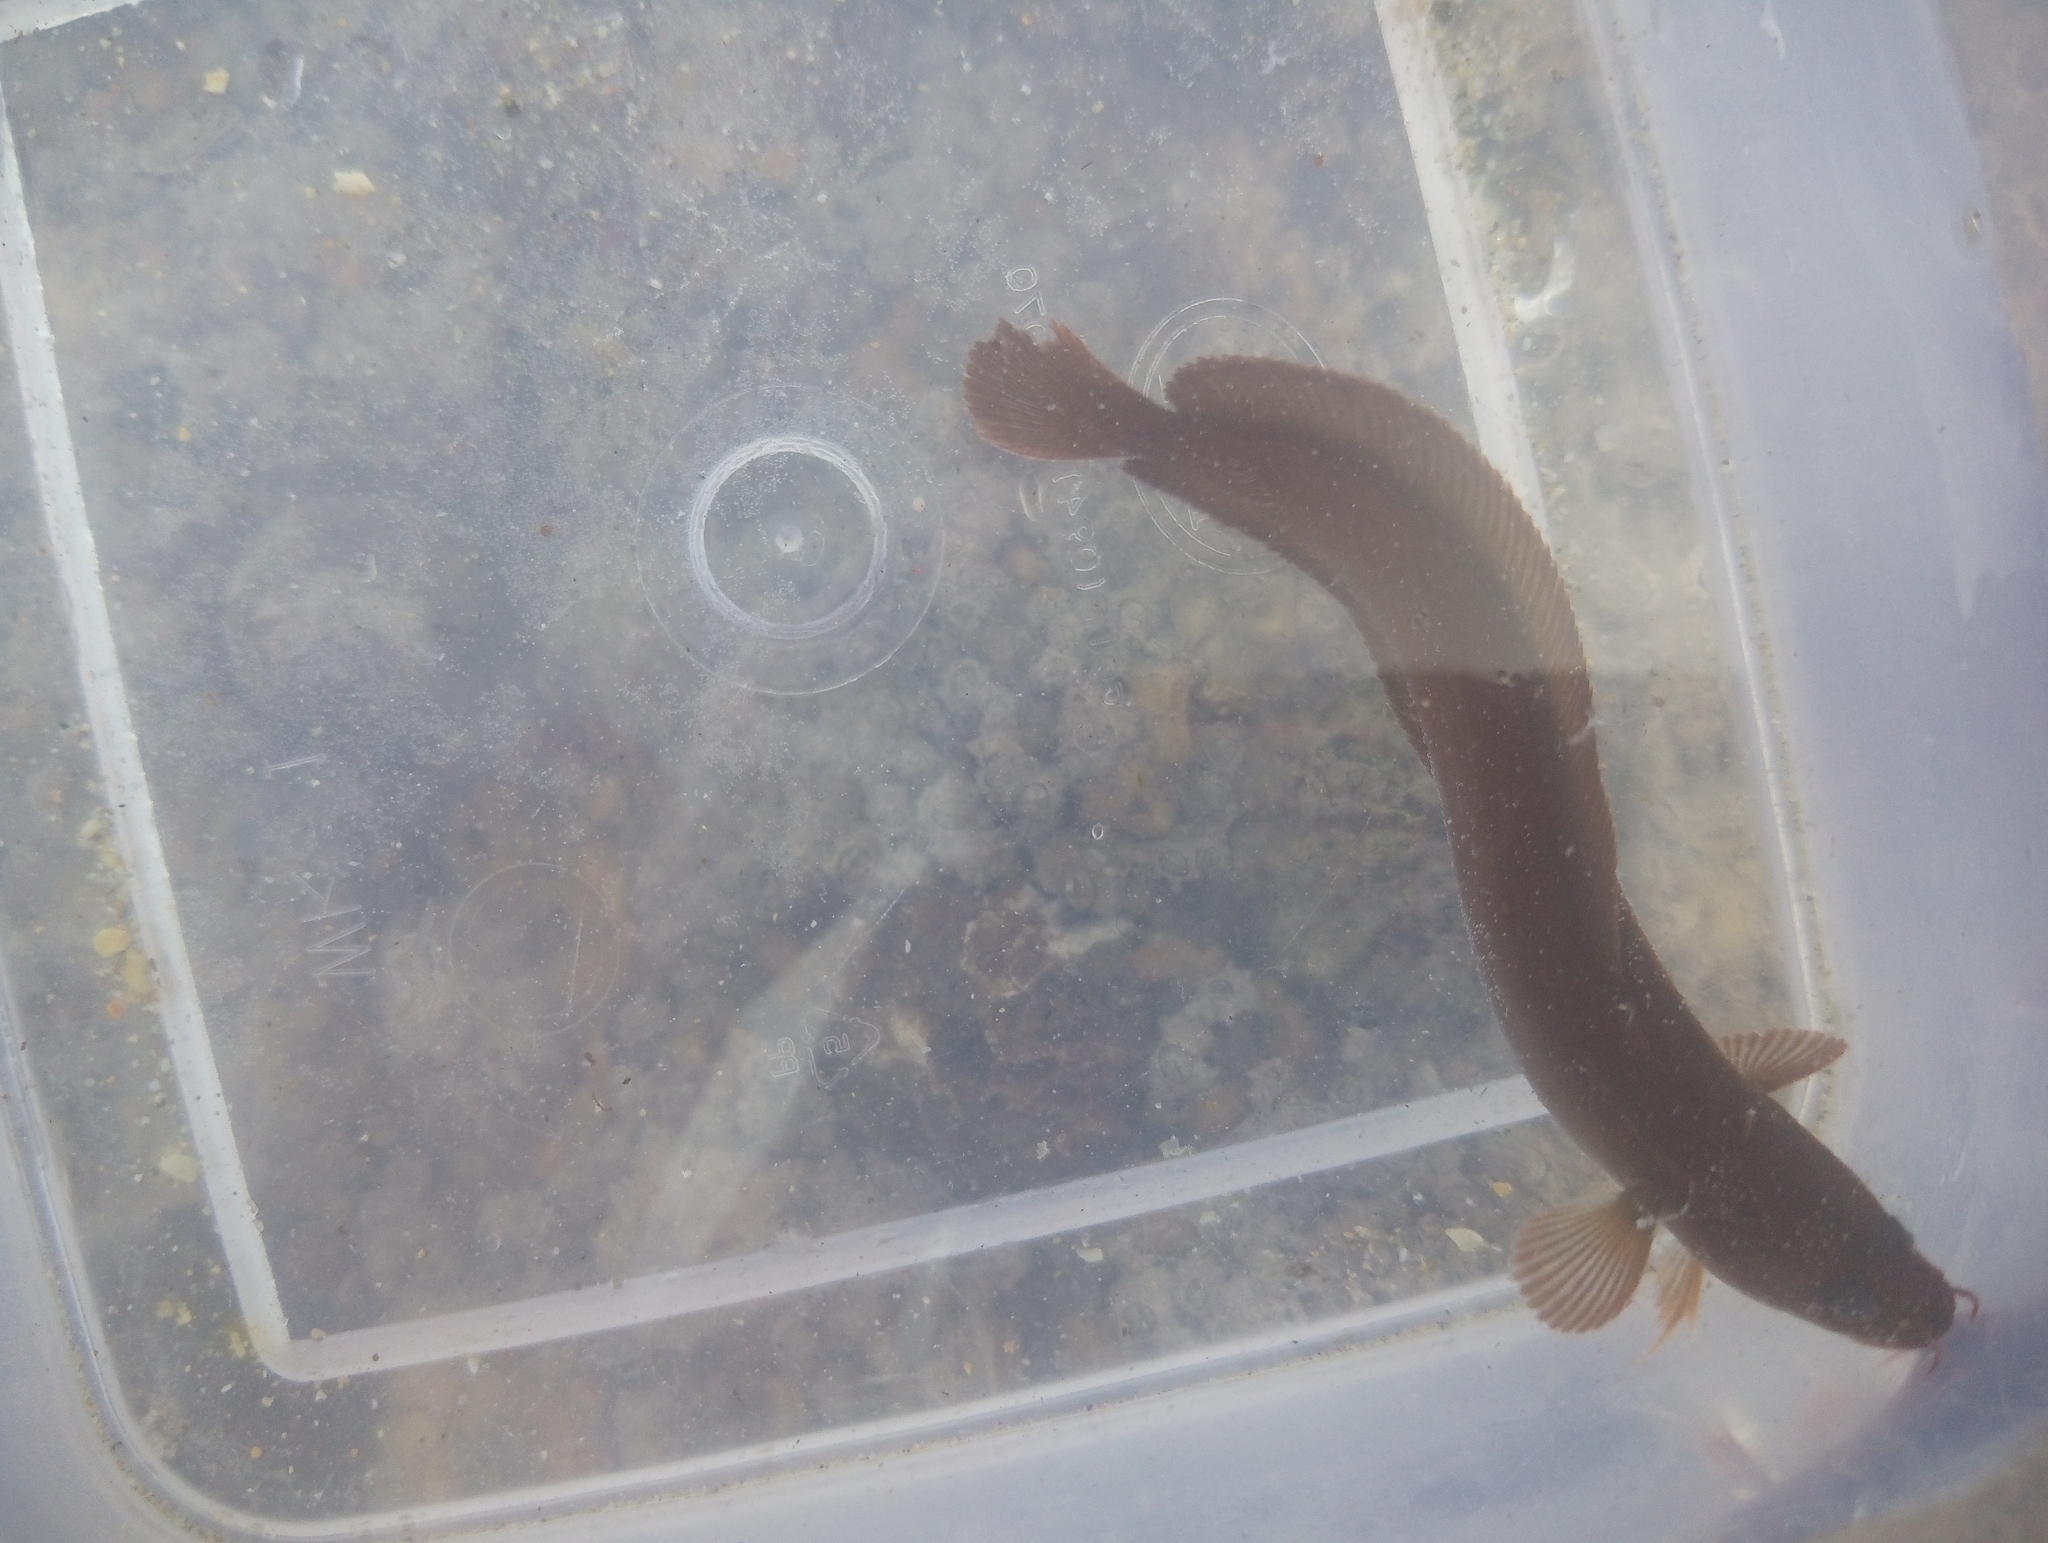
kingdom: Animalia
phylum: Chordata
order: Gadiformes
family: Lotidae
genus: Gaidropsarus
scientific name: Gaidropsarus mediterraneus
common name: Shore rockling
